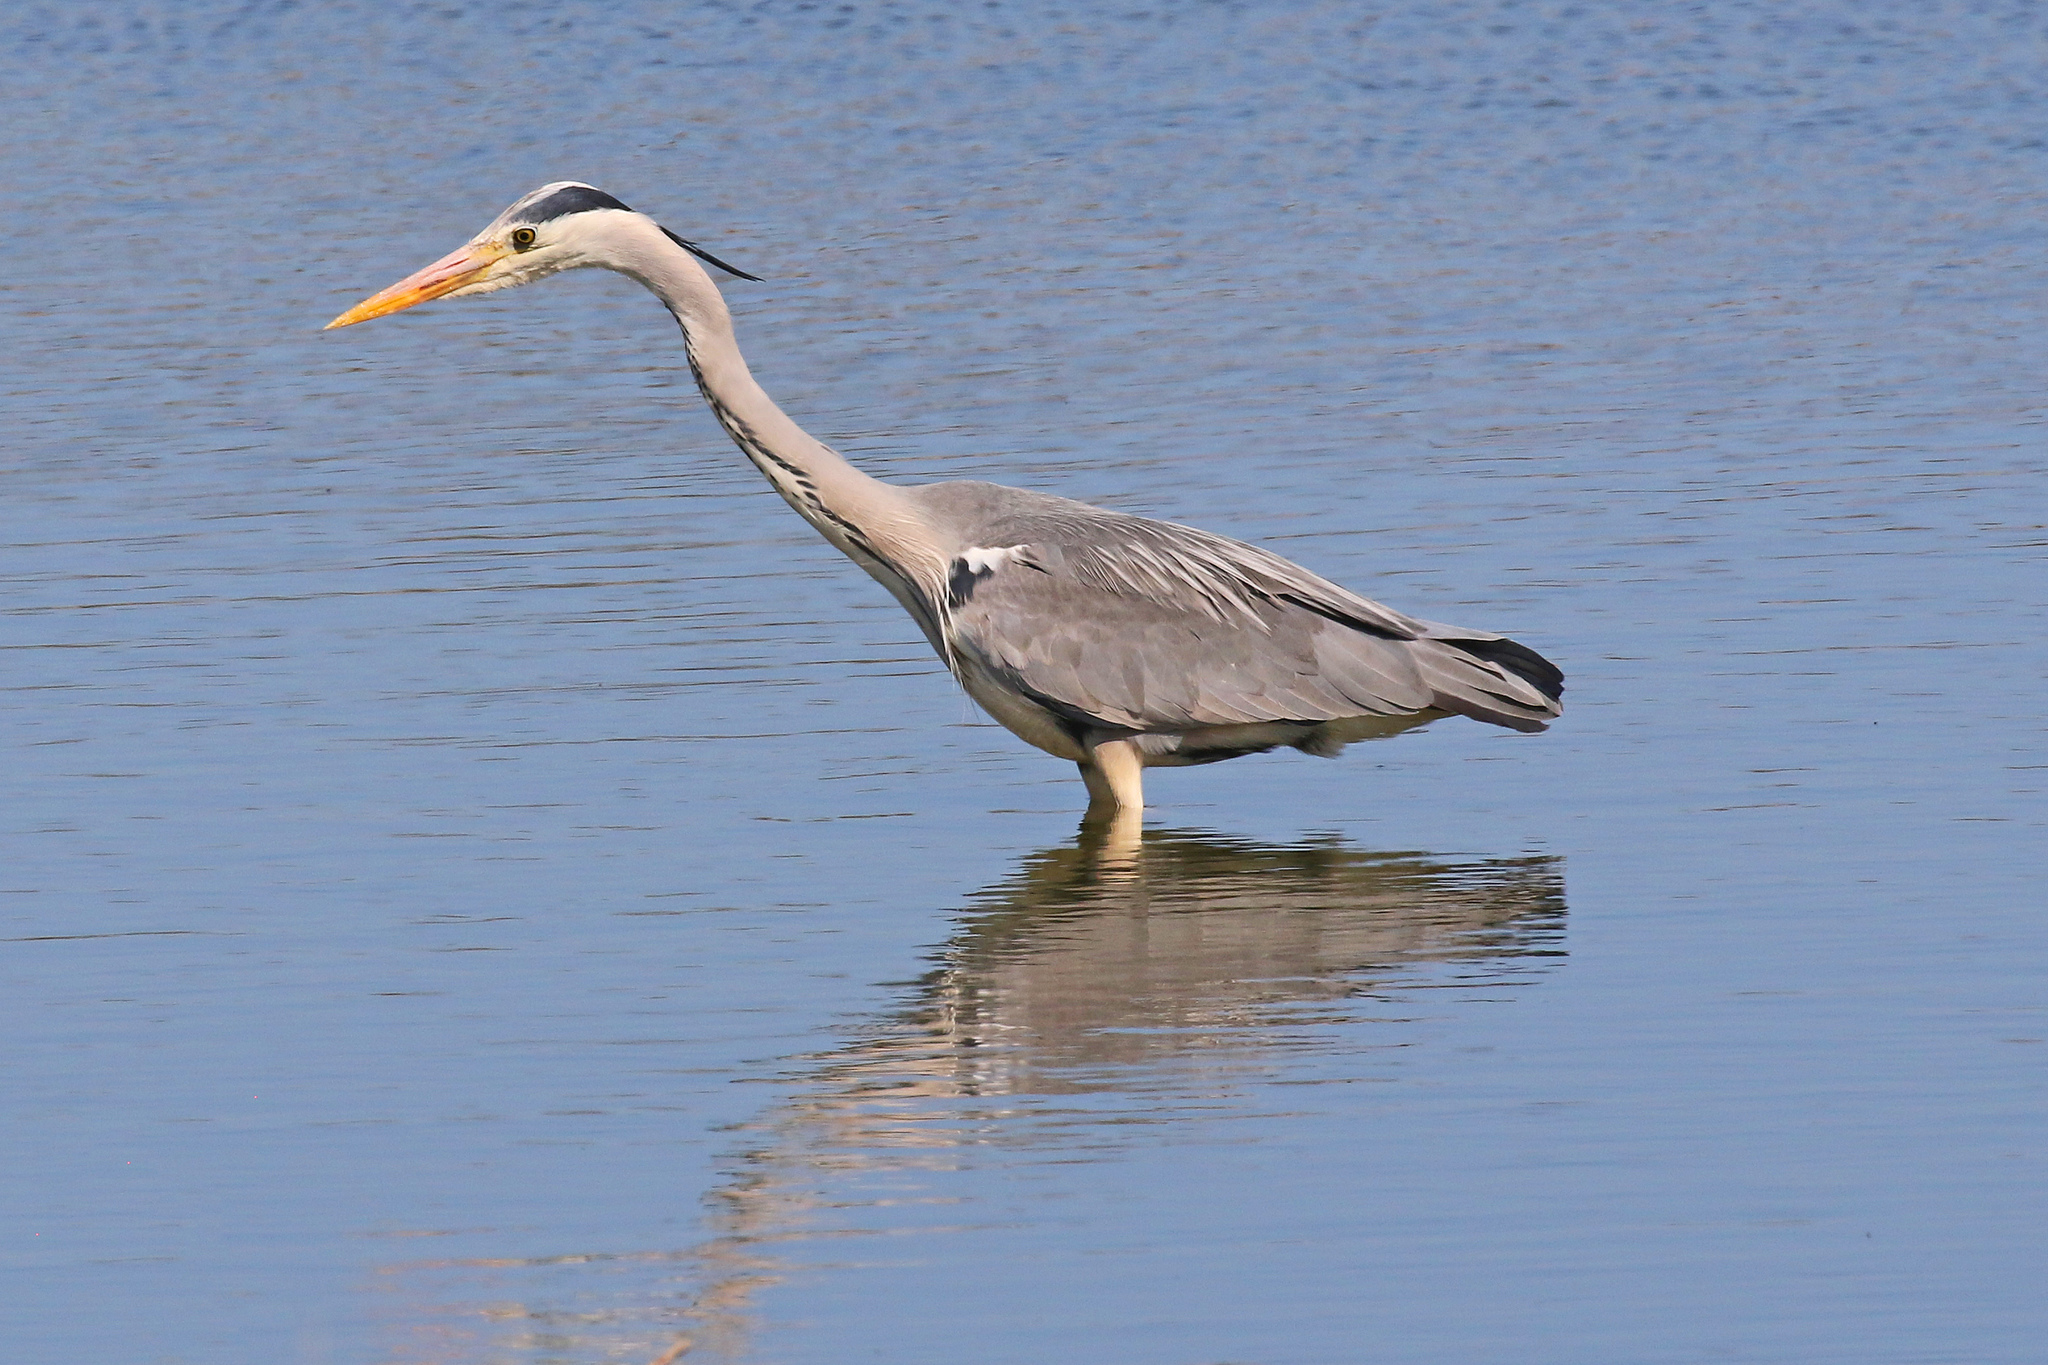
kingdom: Animalia
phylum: Chordata
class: Aves
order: Pelecaniformes
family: Ardeidae
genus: Ardea
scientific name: Ardea cinerea
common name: Grey heron
